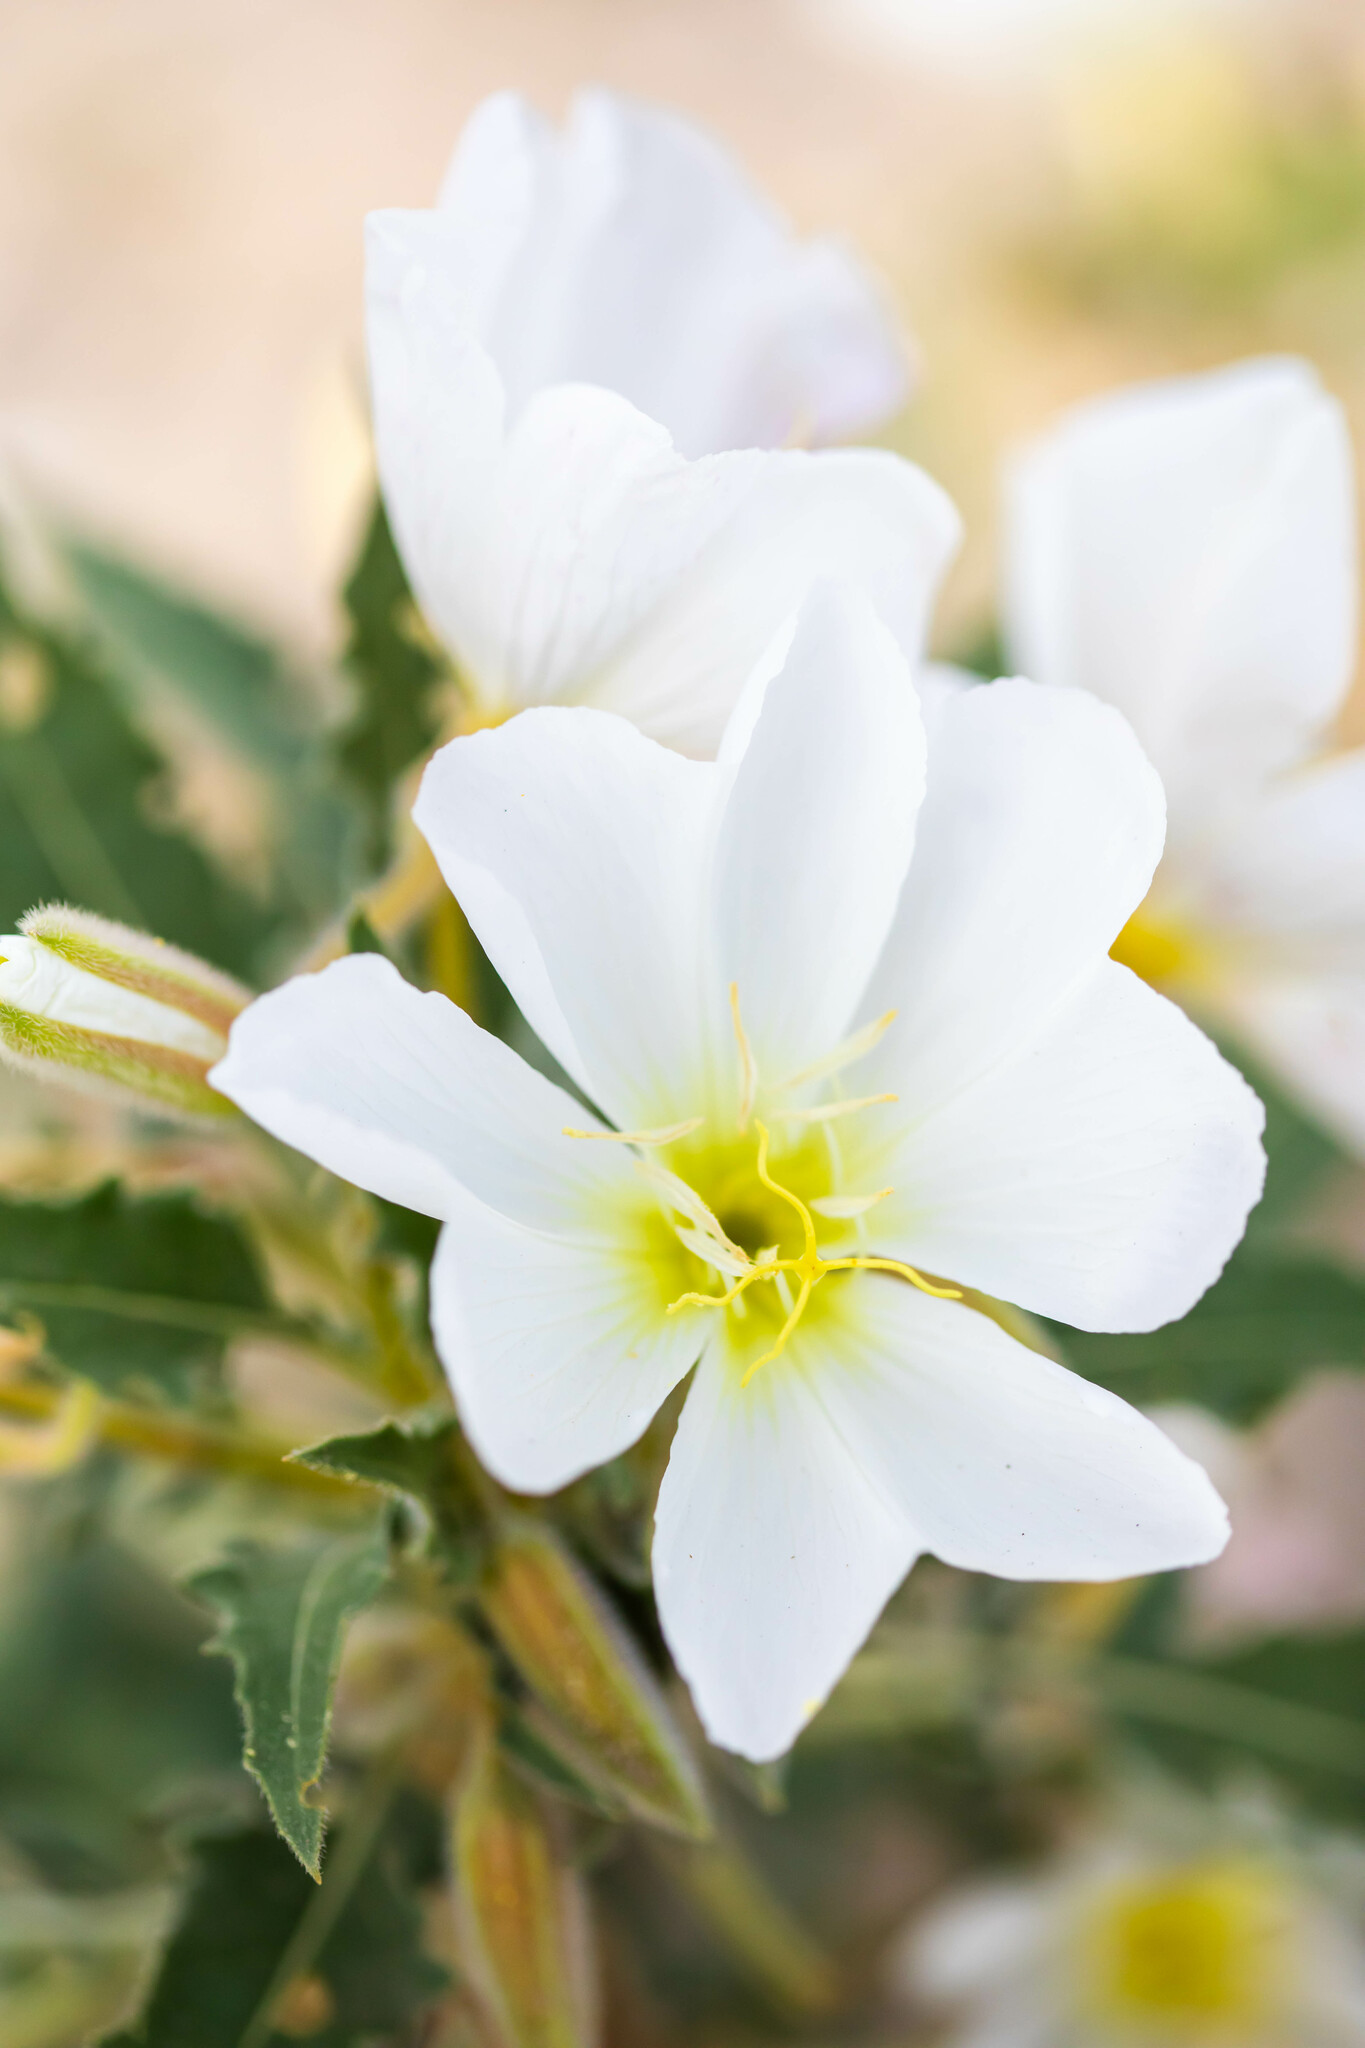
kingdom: Plantae
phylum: Tracheophyta
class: Magnoliopsida
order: Myrtales
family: Onagraceae
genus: Oenothera
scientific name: Oenothera deltoides
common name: Basket evening-primrose
